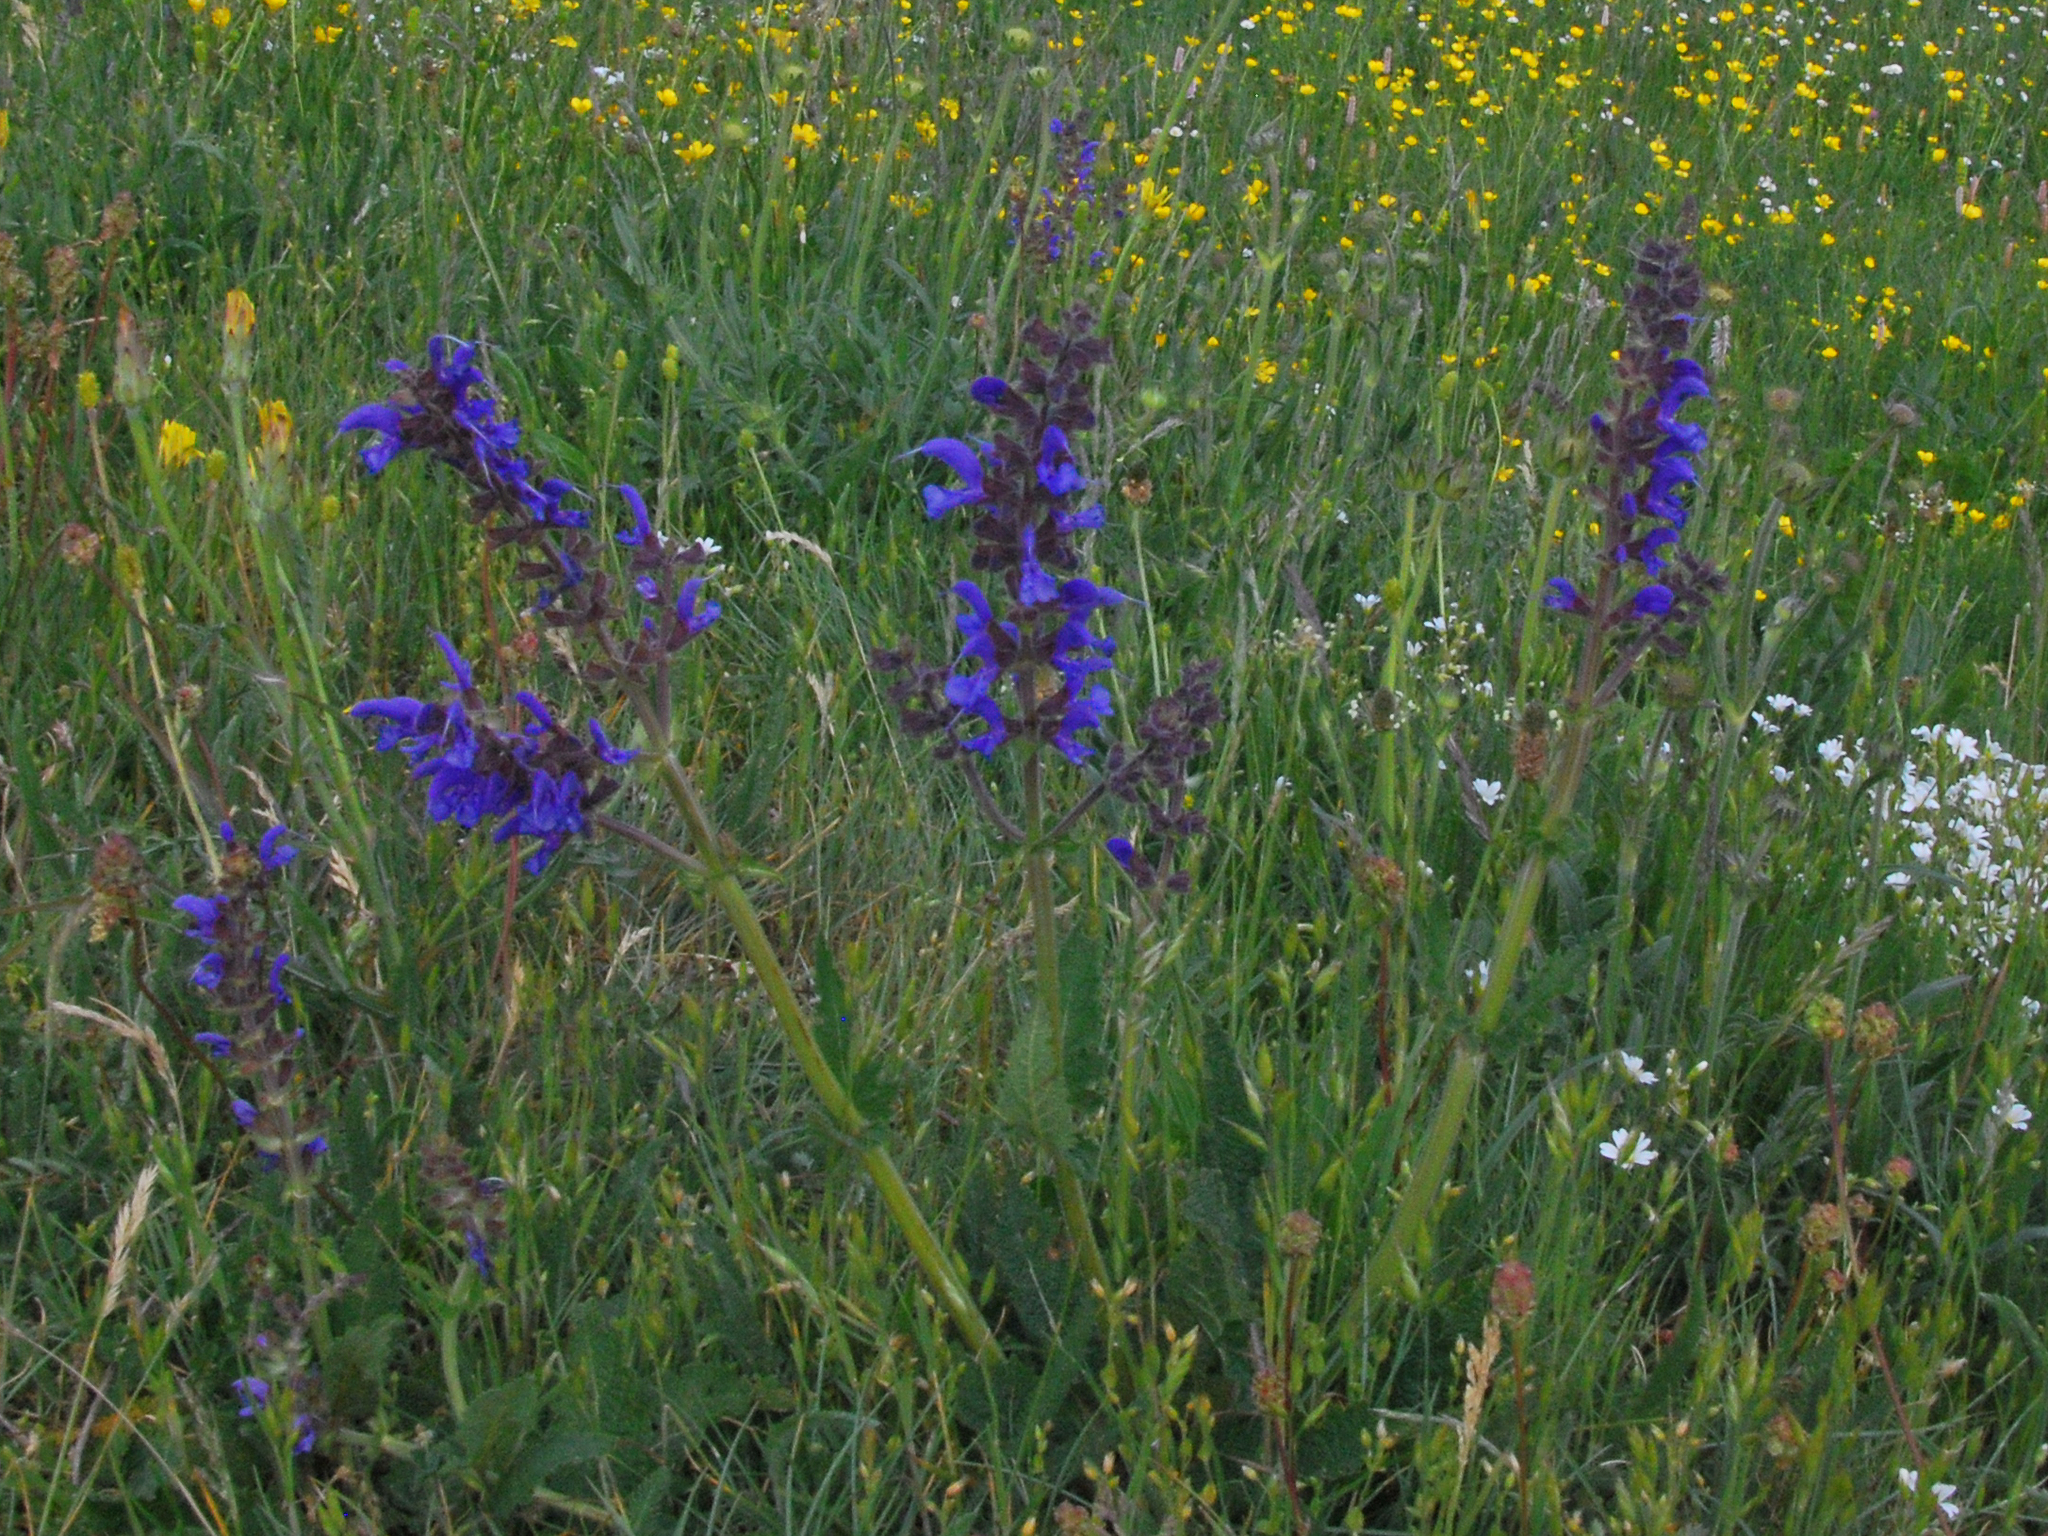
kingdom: Plantae
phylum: Tracheophyta
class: Magnoliopsida
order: Lamiales
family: Lamiaceae
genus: Salvia
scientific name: Salvia pratensis
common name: Meadow sage
